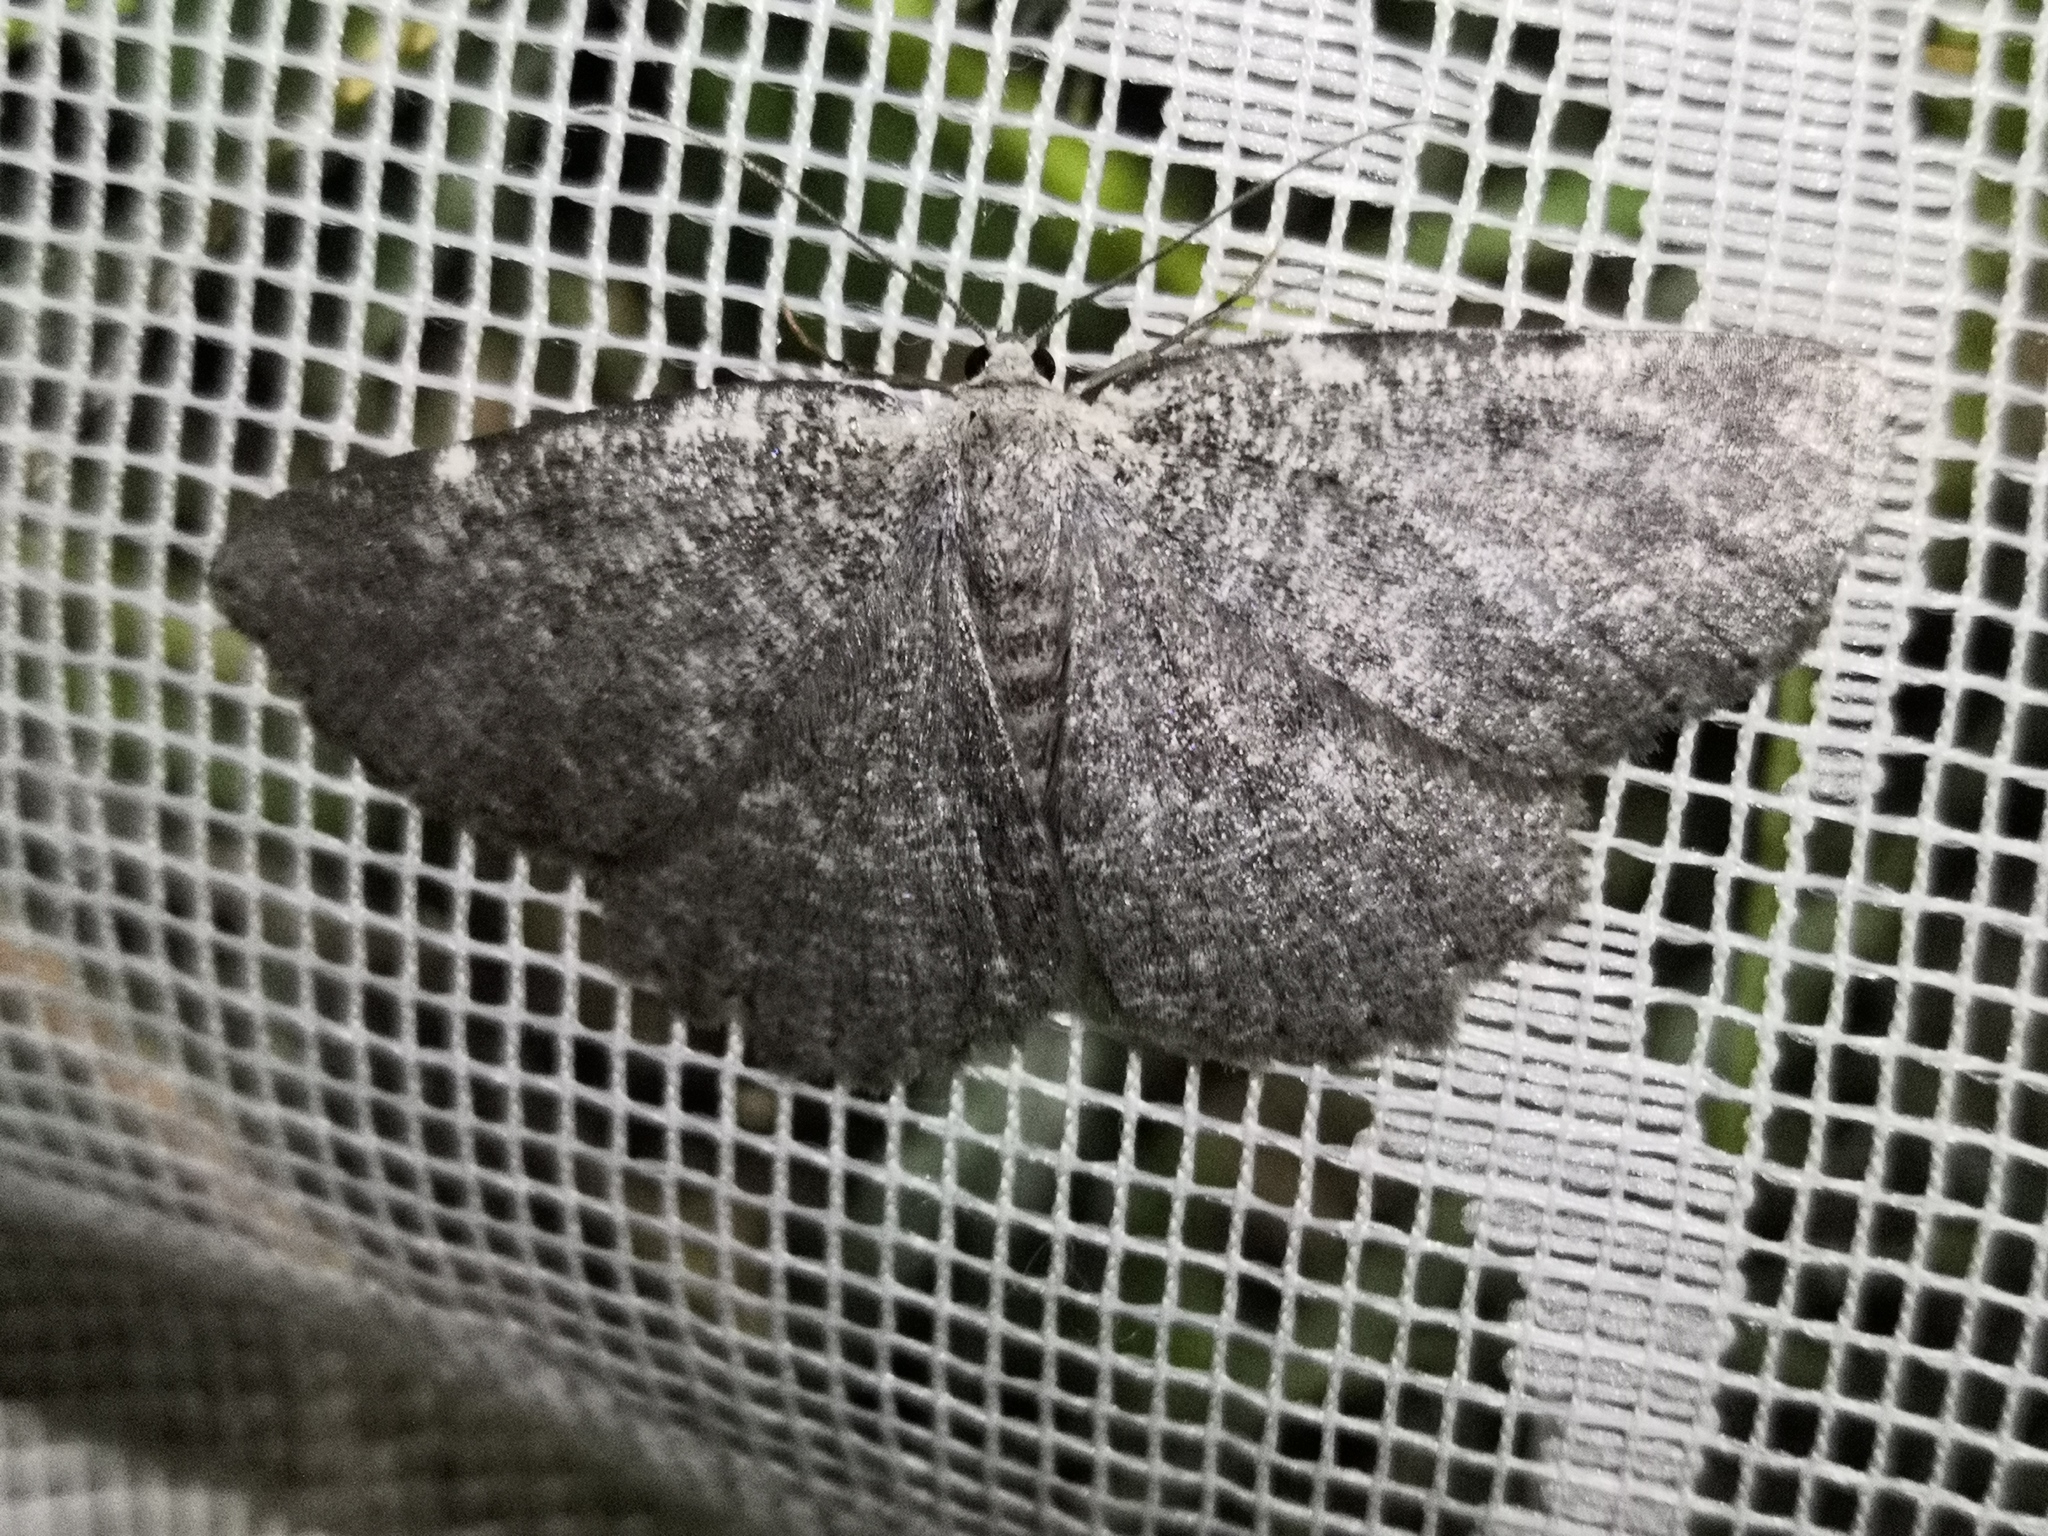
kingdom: Animalia
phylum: Arthropoda
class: Insecta
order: Lepidoptera
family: Geometridae
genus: Charissa
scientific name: Charissa pullata
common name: Limestone annulet
